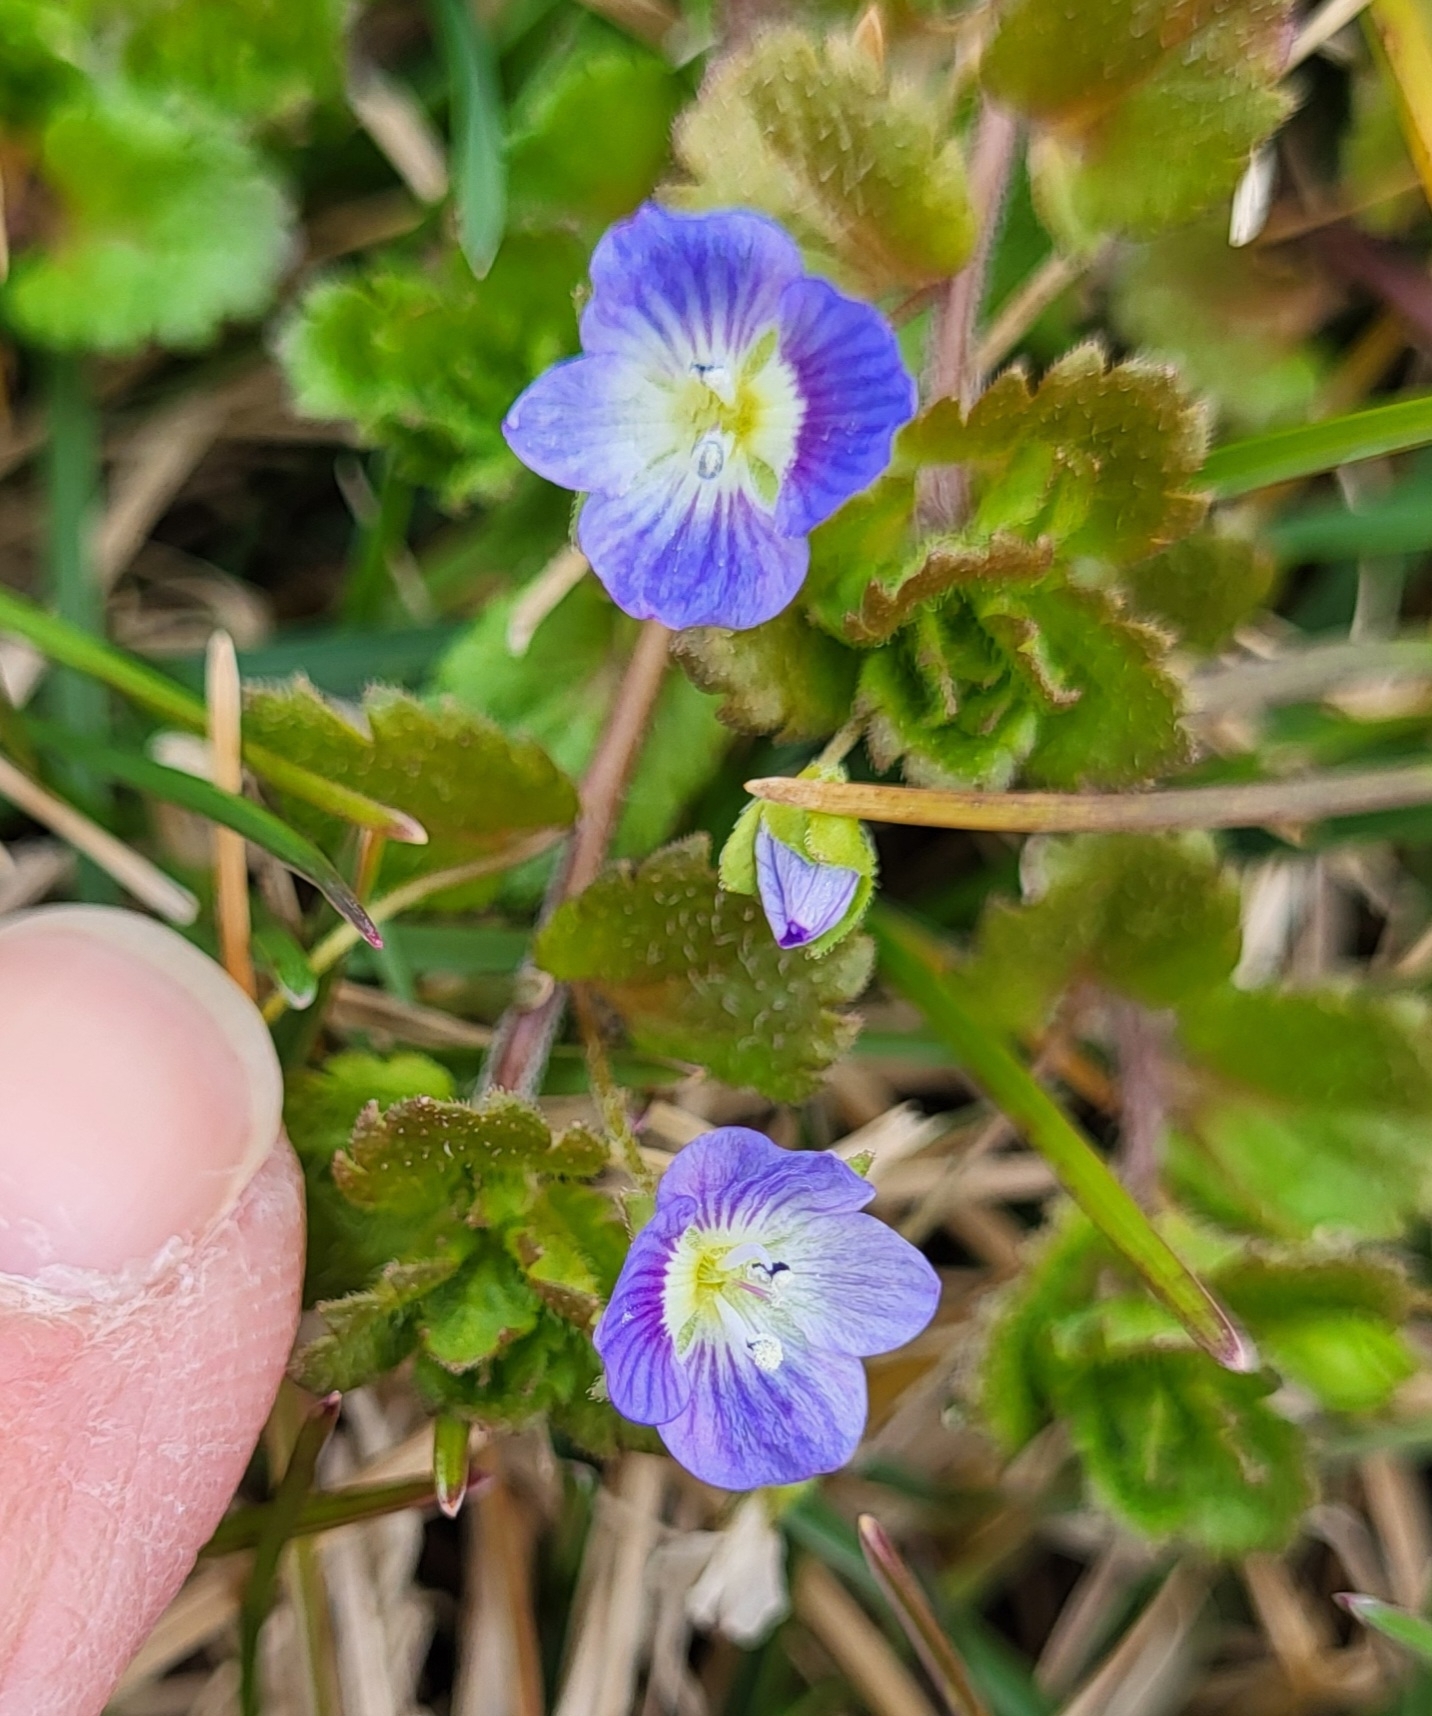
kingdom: Plantae
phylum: Tracheophyta
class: Magnoliopsida
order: Lamiales
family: Plantaginaceae
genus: Veronica
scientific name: Veronica persica
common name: Common field-speedwell
